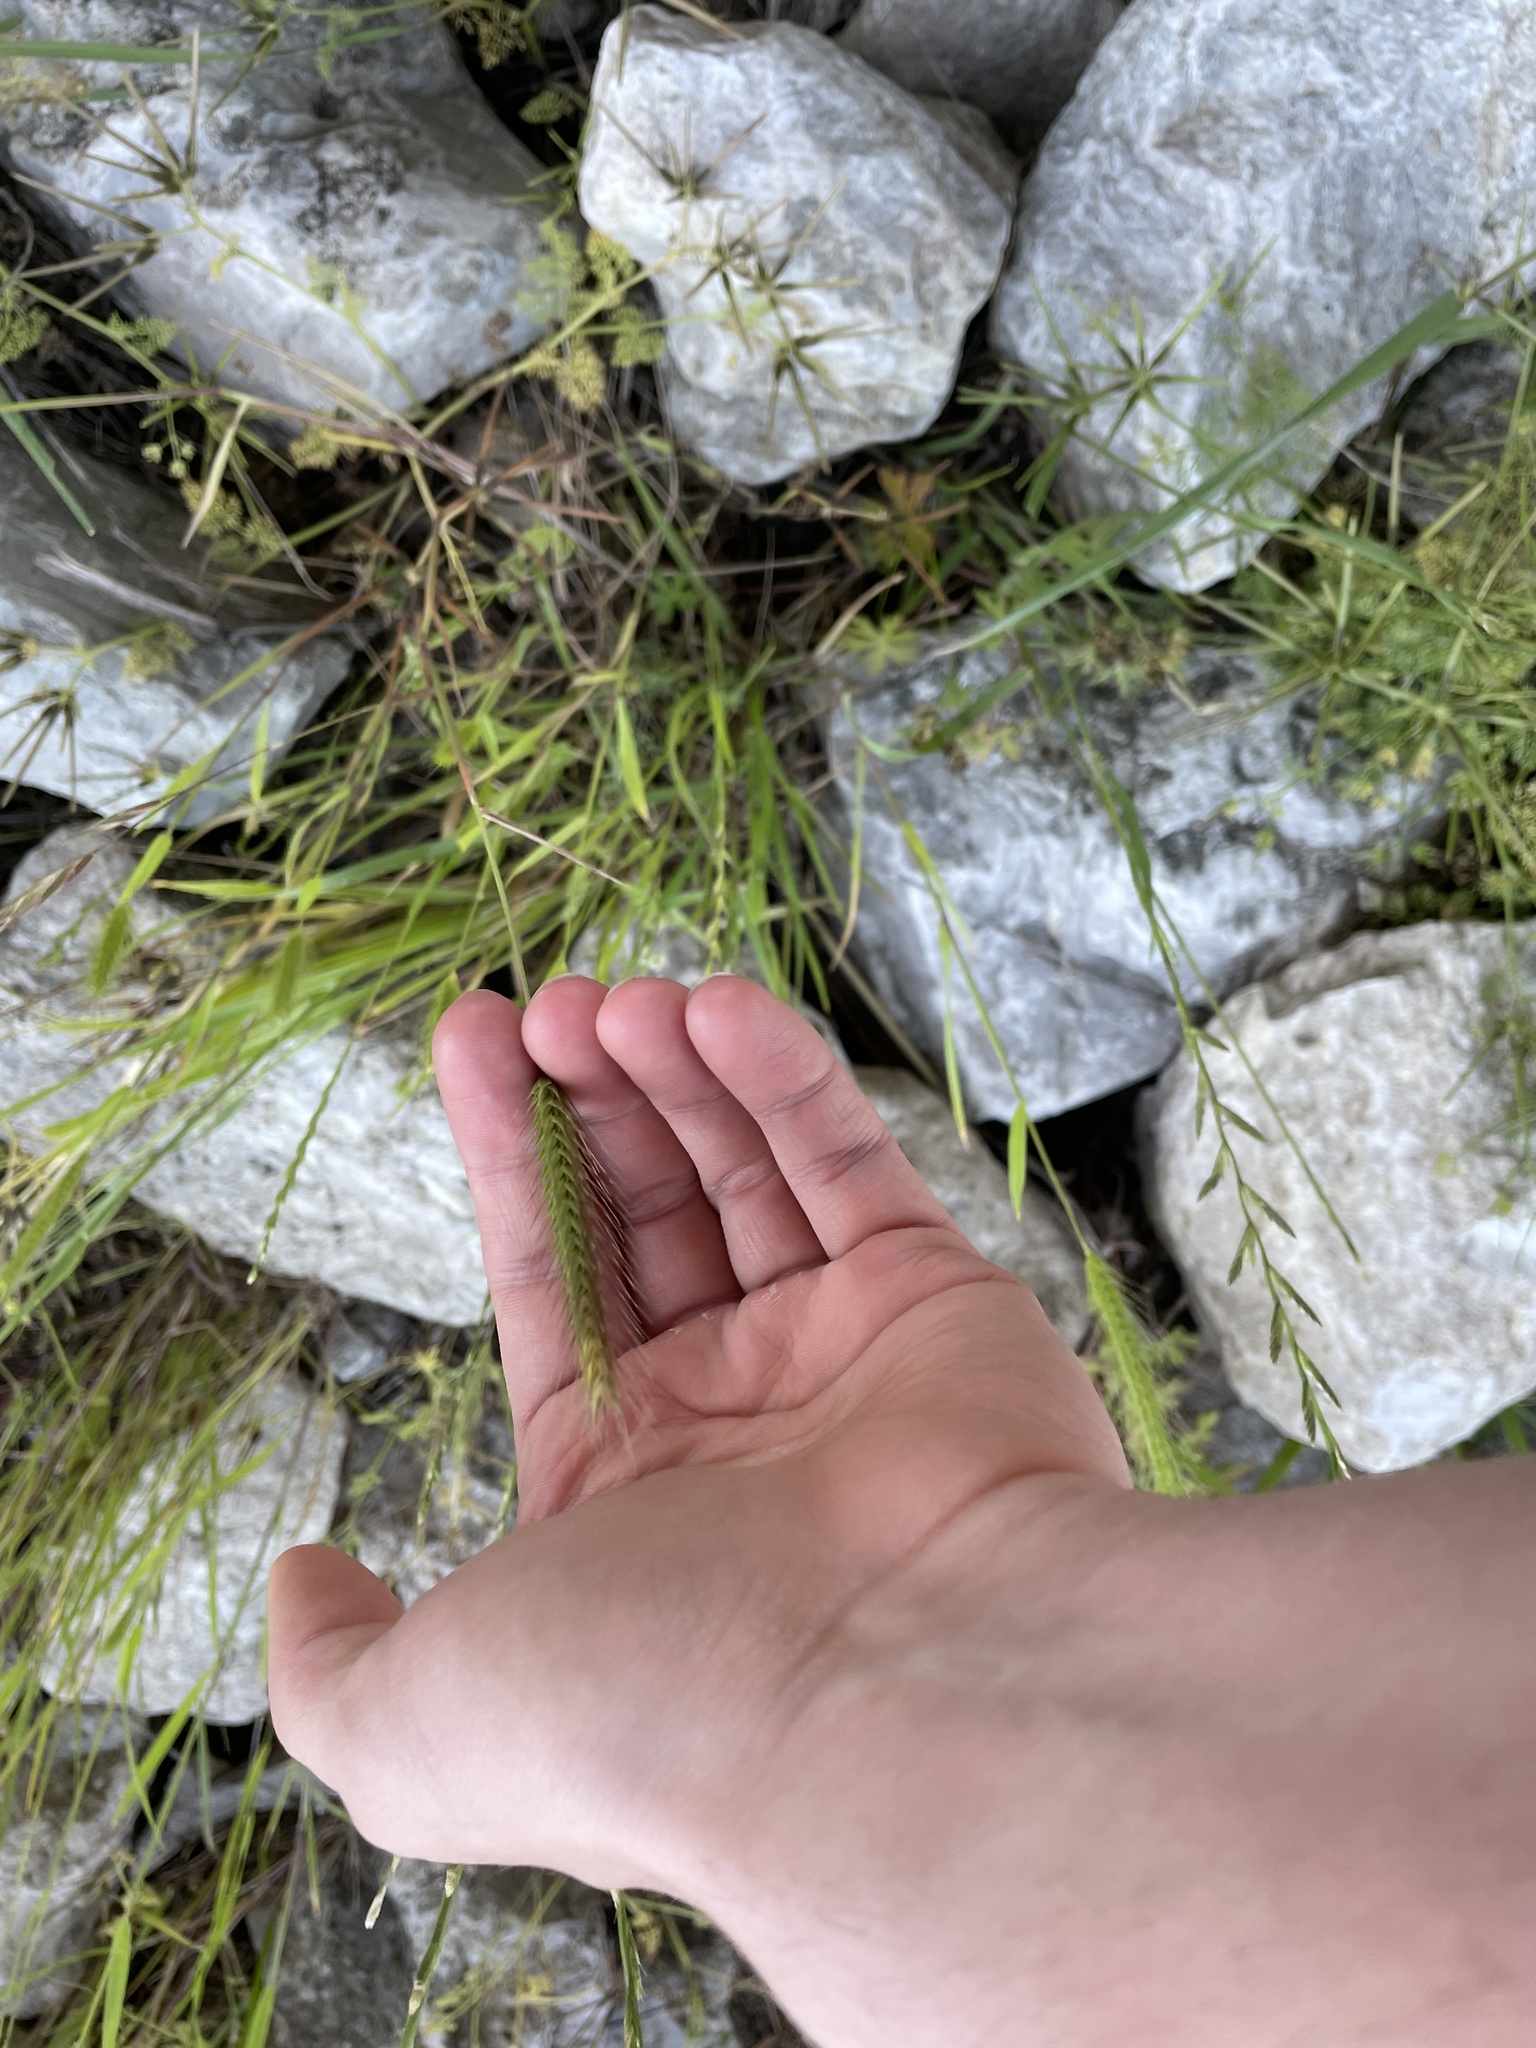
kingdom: Plantae
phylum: Tracheophyta
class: Liliopsida
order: Poales
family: Poaceae
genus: Hordeum
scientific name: Hordeum pusillum
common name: Little barley
